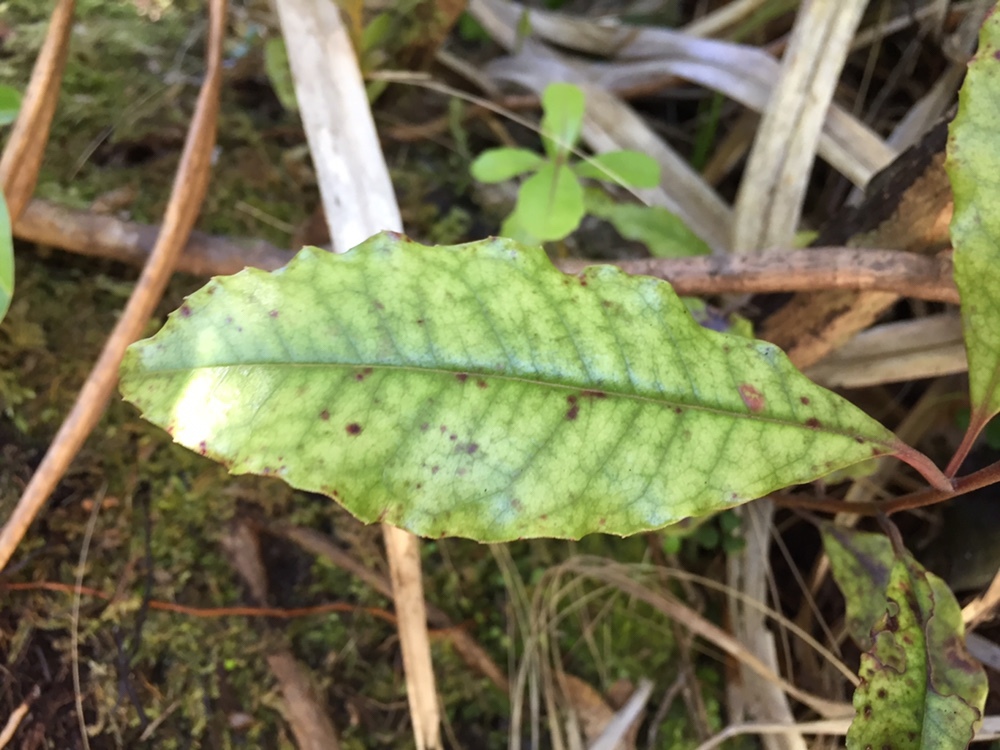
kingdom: Plantae
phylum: Tracheophyta
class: Magnoliopsida
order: Paracryphiales
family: Paracryphiaceae
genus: Quintinia
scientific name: Quintinia serrata
